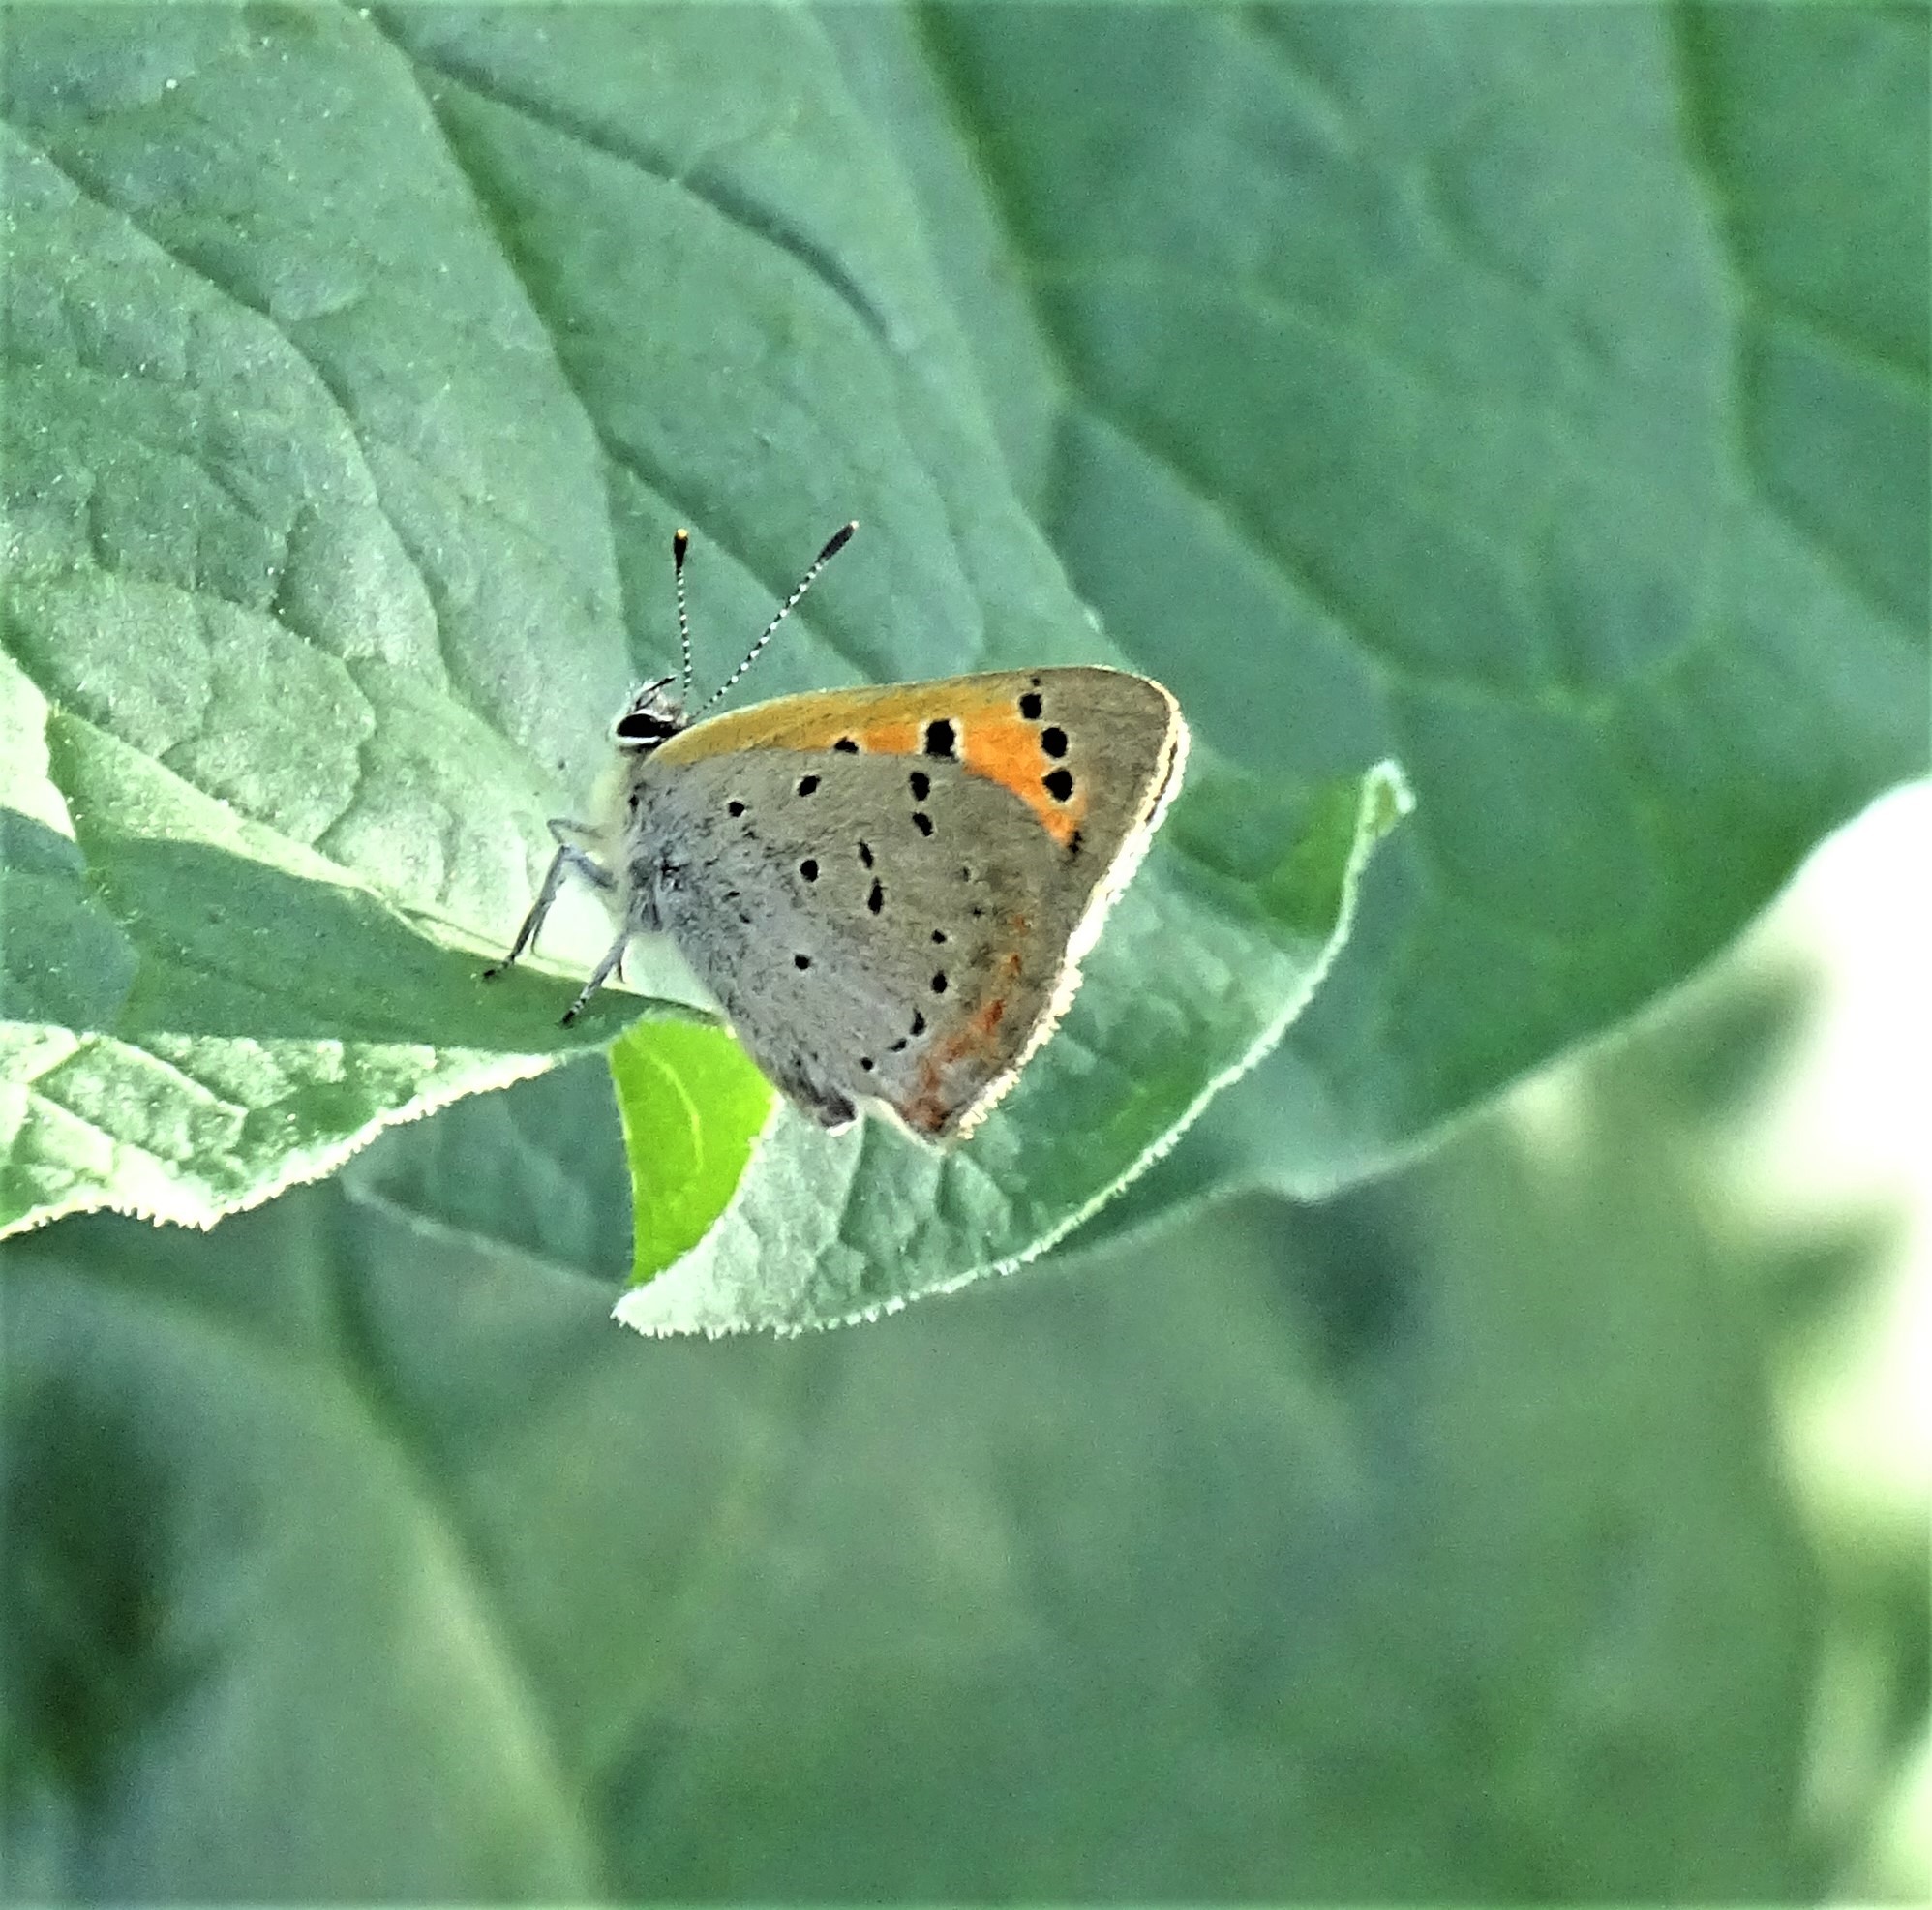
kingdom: Animalia
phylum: Arthropoda
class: Insecta
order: Lepidoptera
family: Lycaenidae
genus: Lycaena
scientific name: Lycaena hypophlaeas
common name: American copper
